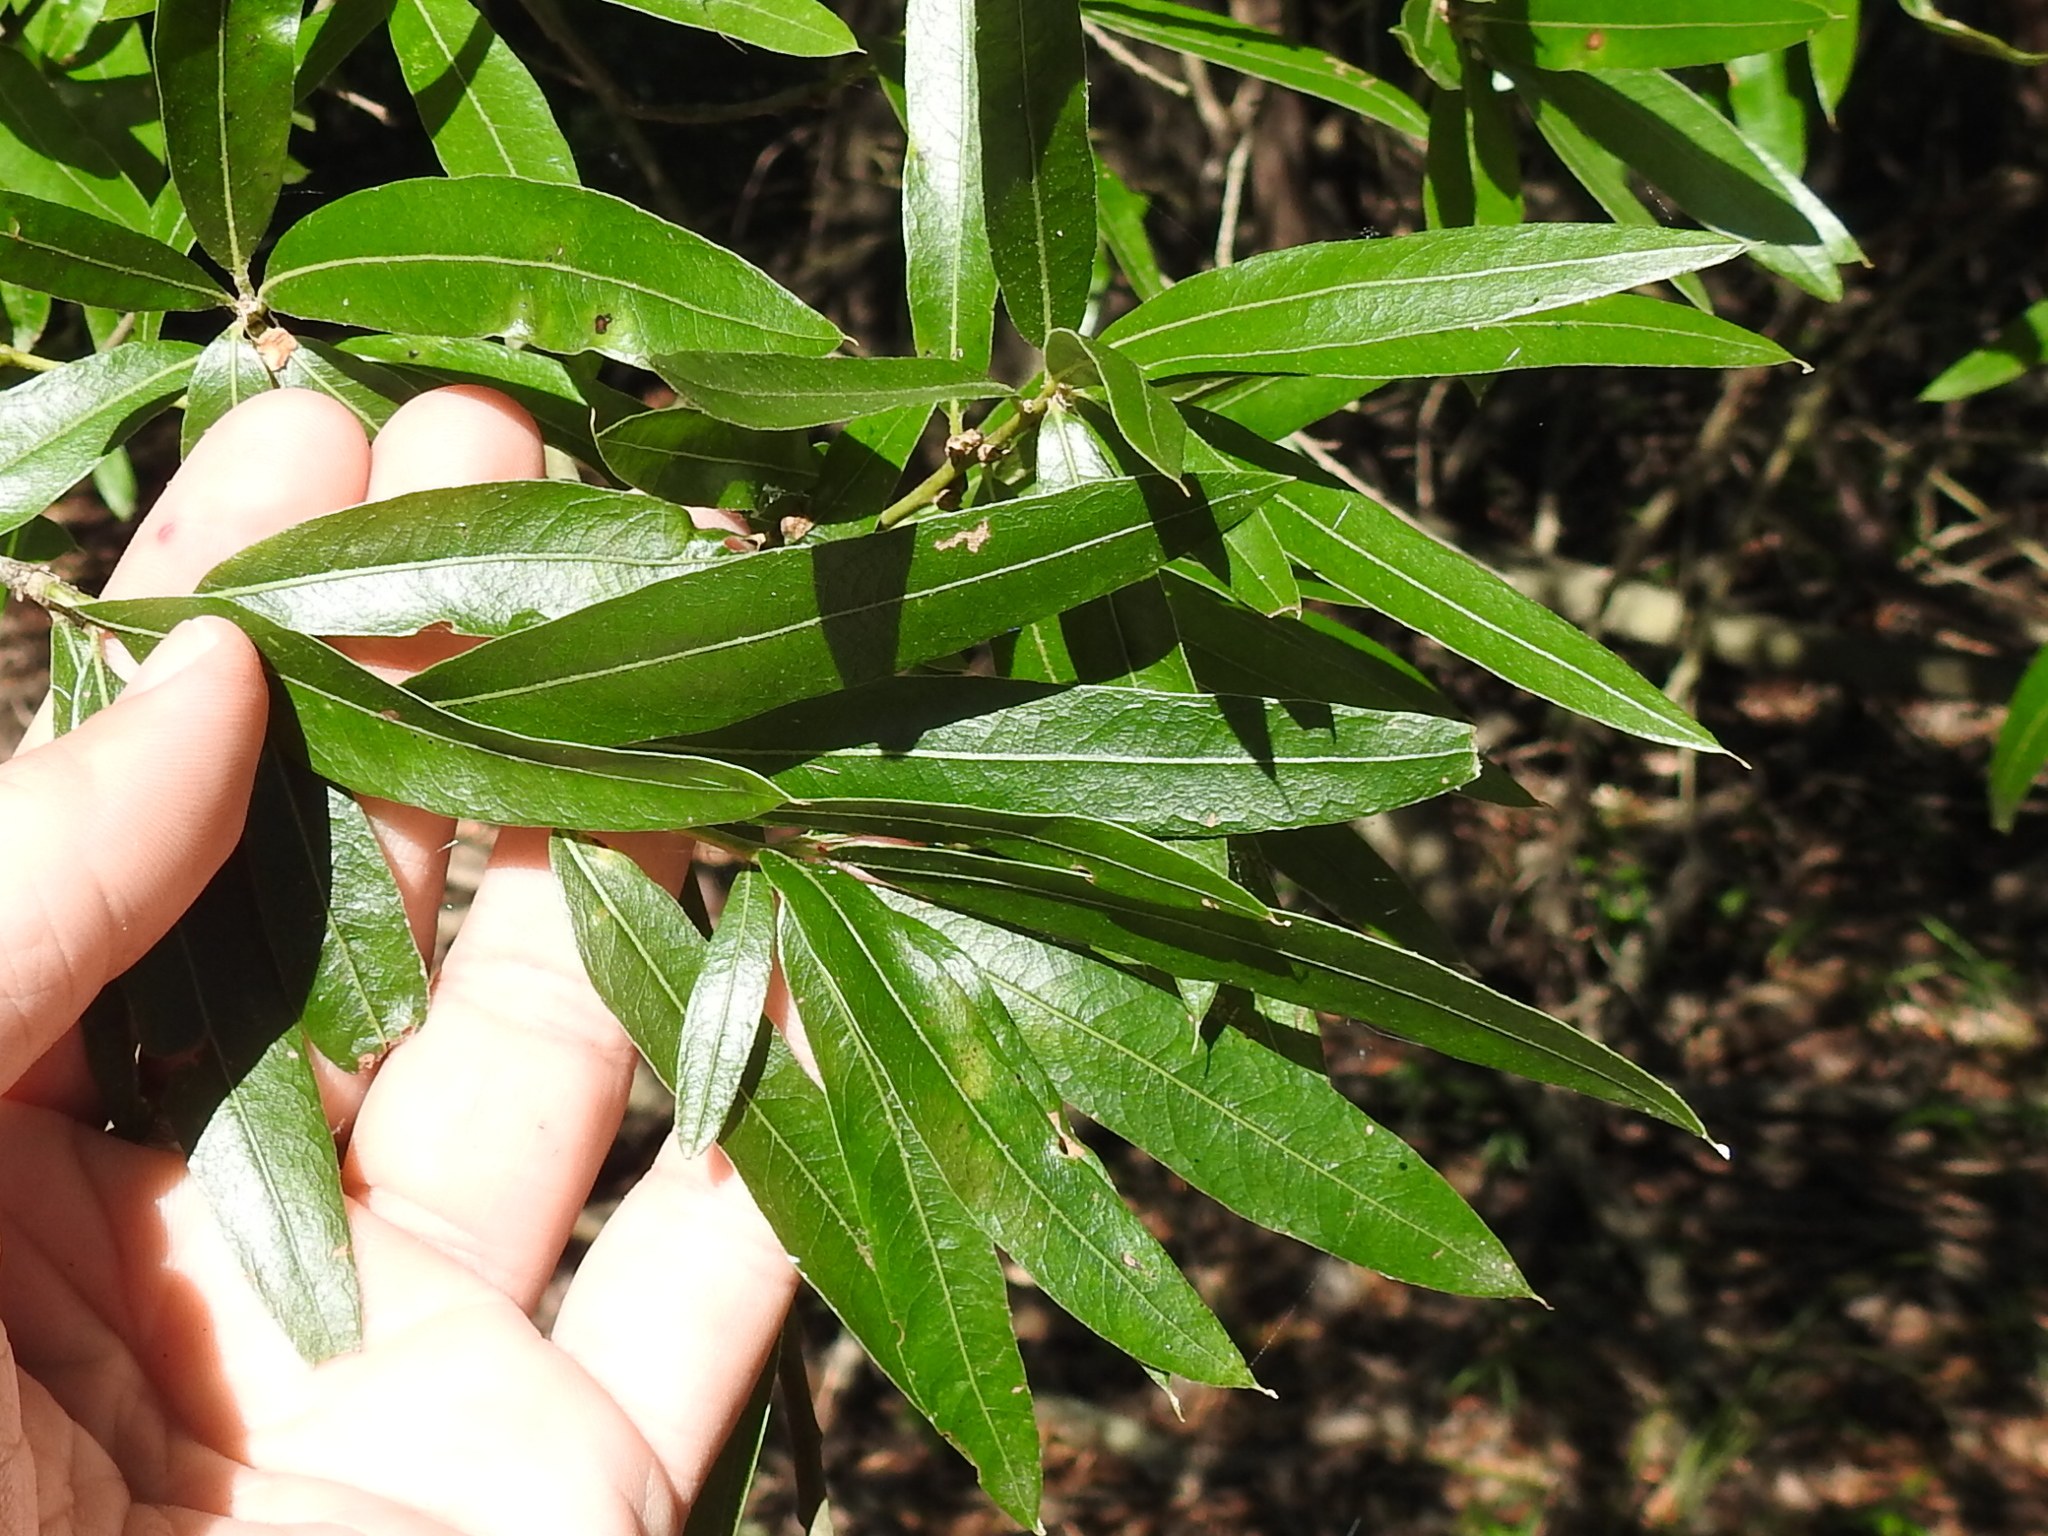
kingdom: Plantae
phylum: Tracheophyta
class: Magnoliopsida
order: Fagales
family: Fagaceae
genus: Quercus
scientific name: Quercus phellos
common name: Willow oak
